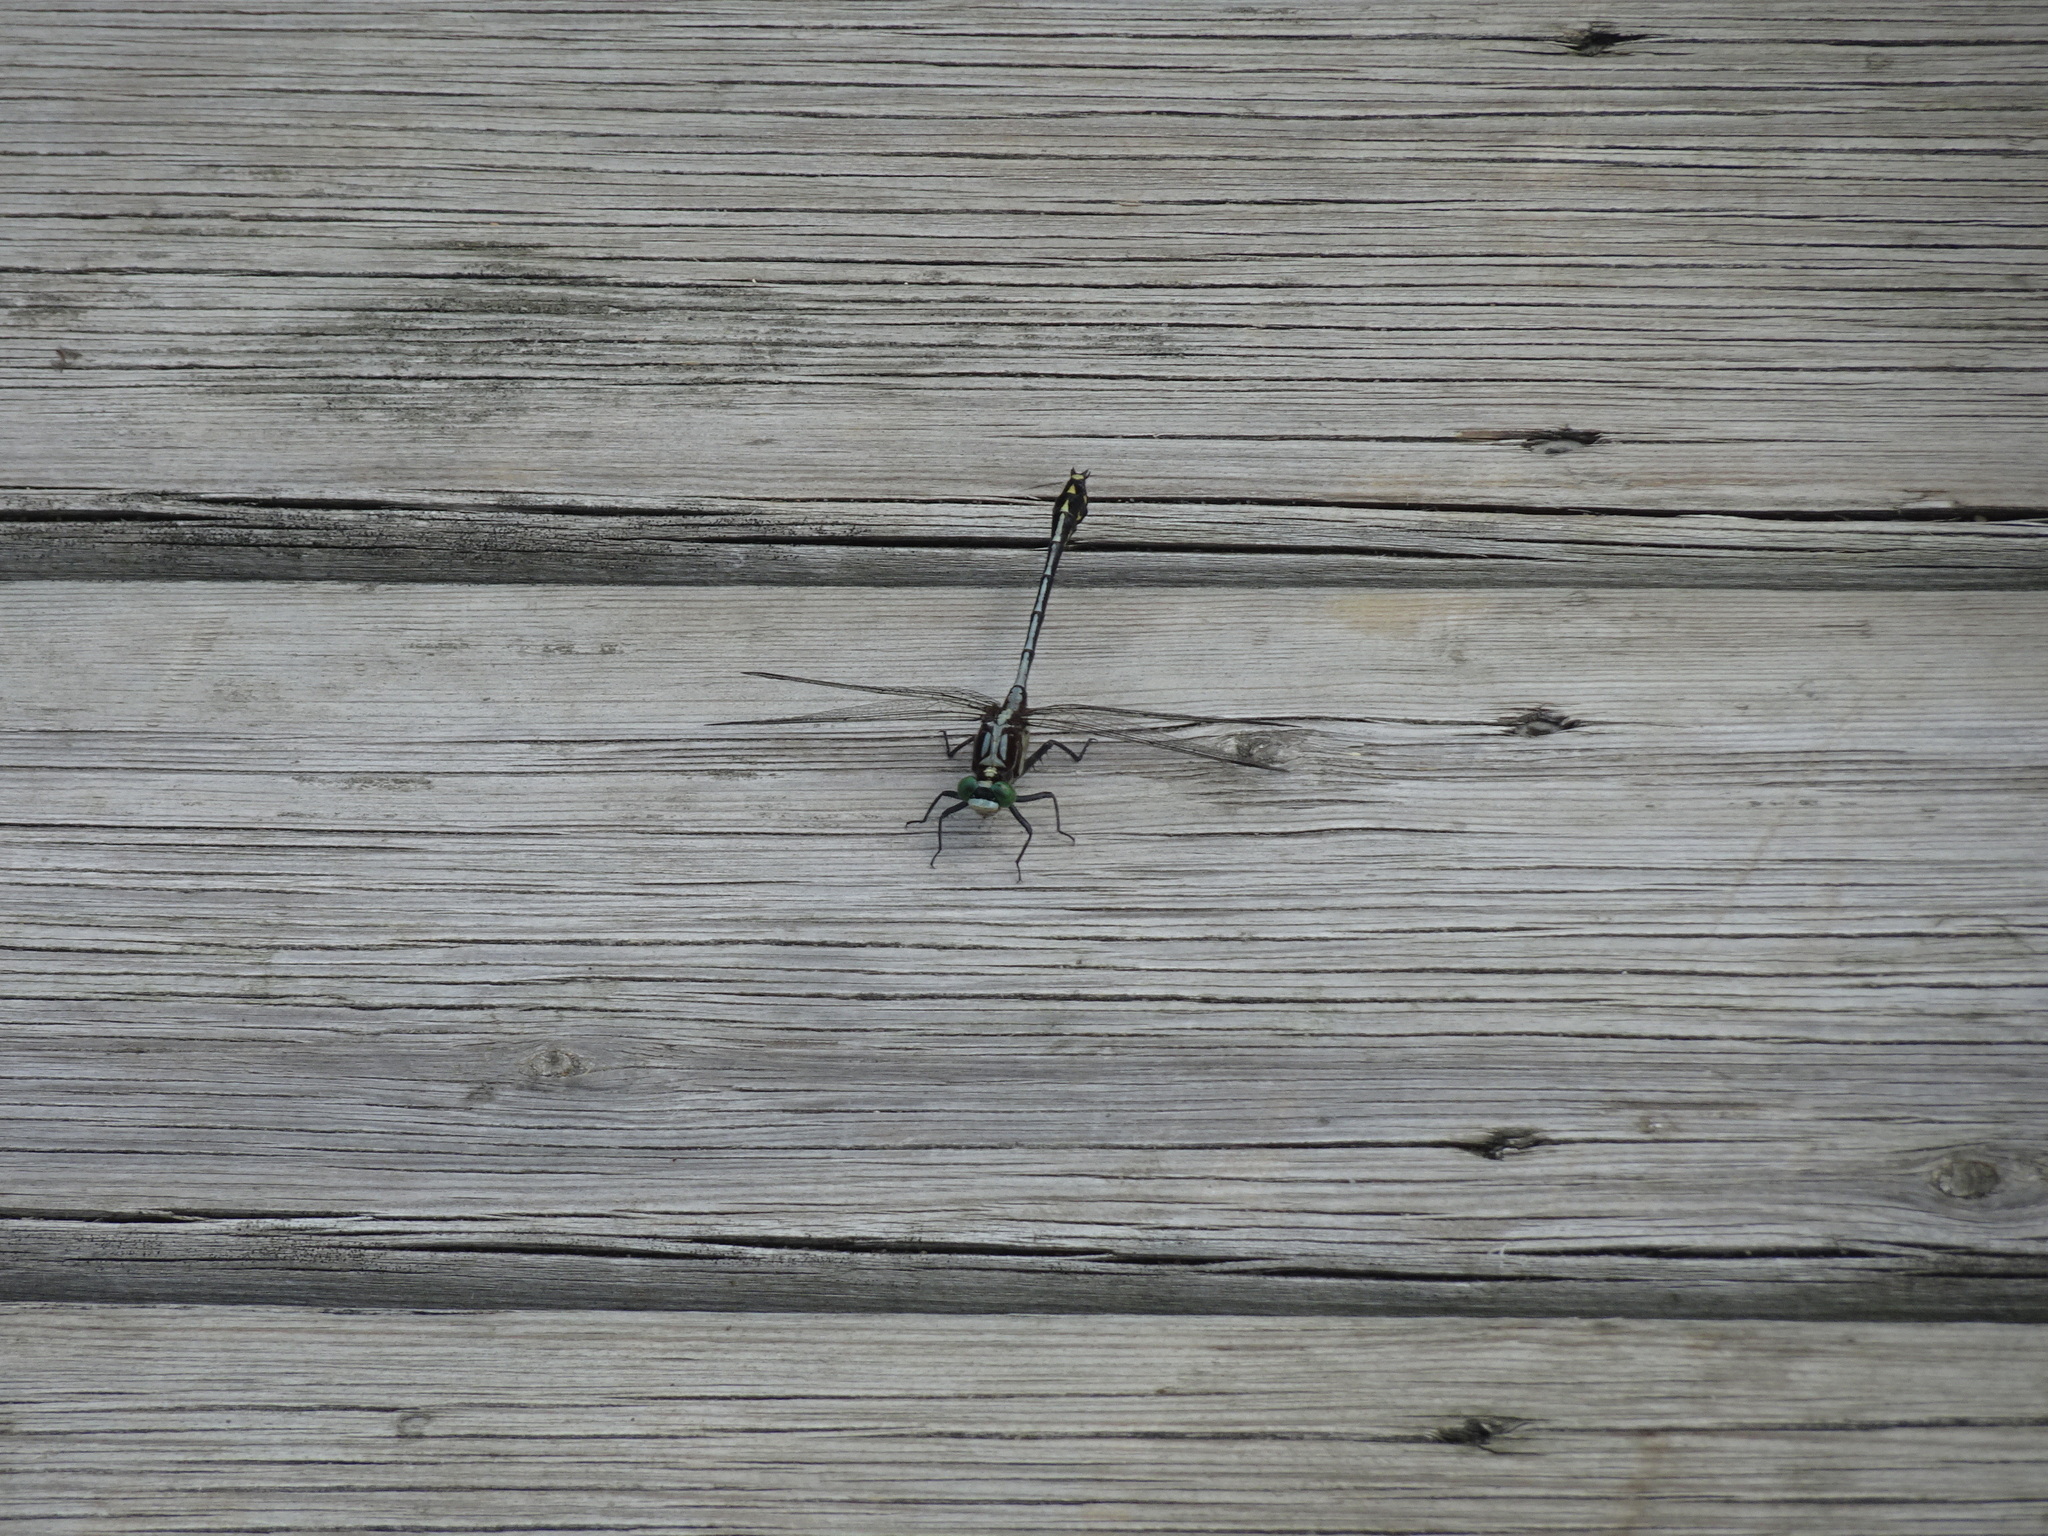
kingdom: Animalia
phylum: Arthropoda
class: Insecta
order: Odonata
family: Gomphidae
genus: Dromogomphus
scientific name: Dromogomphus spinosus
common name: Black-shouldered spinyleg
